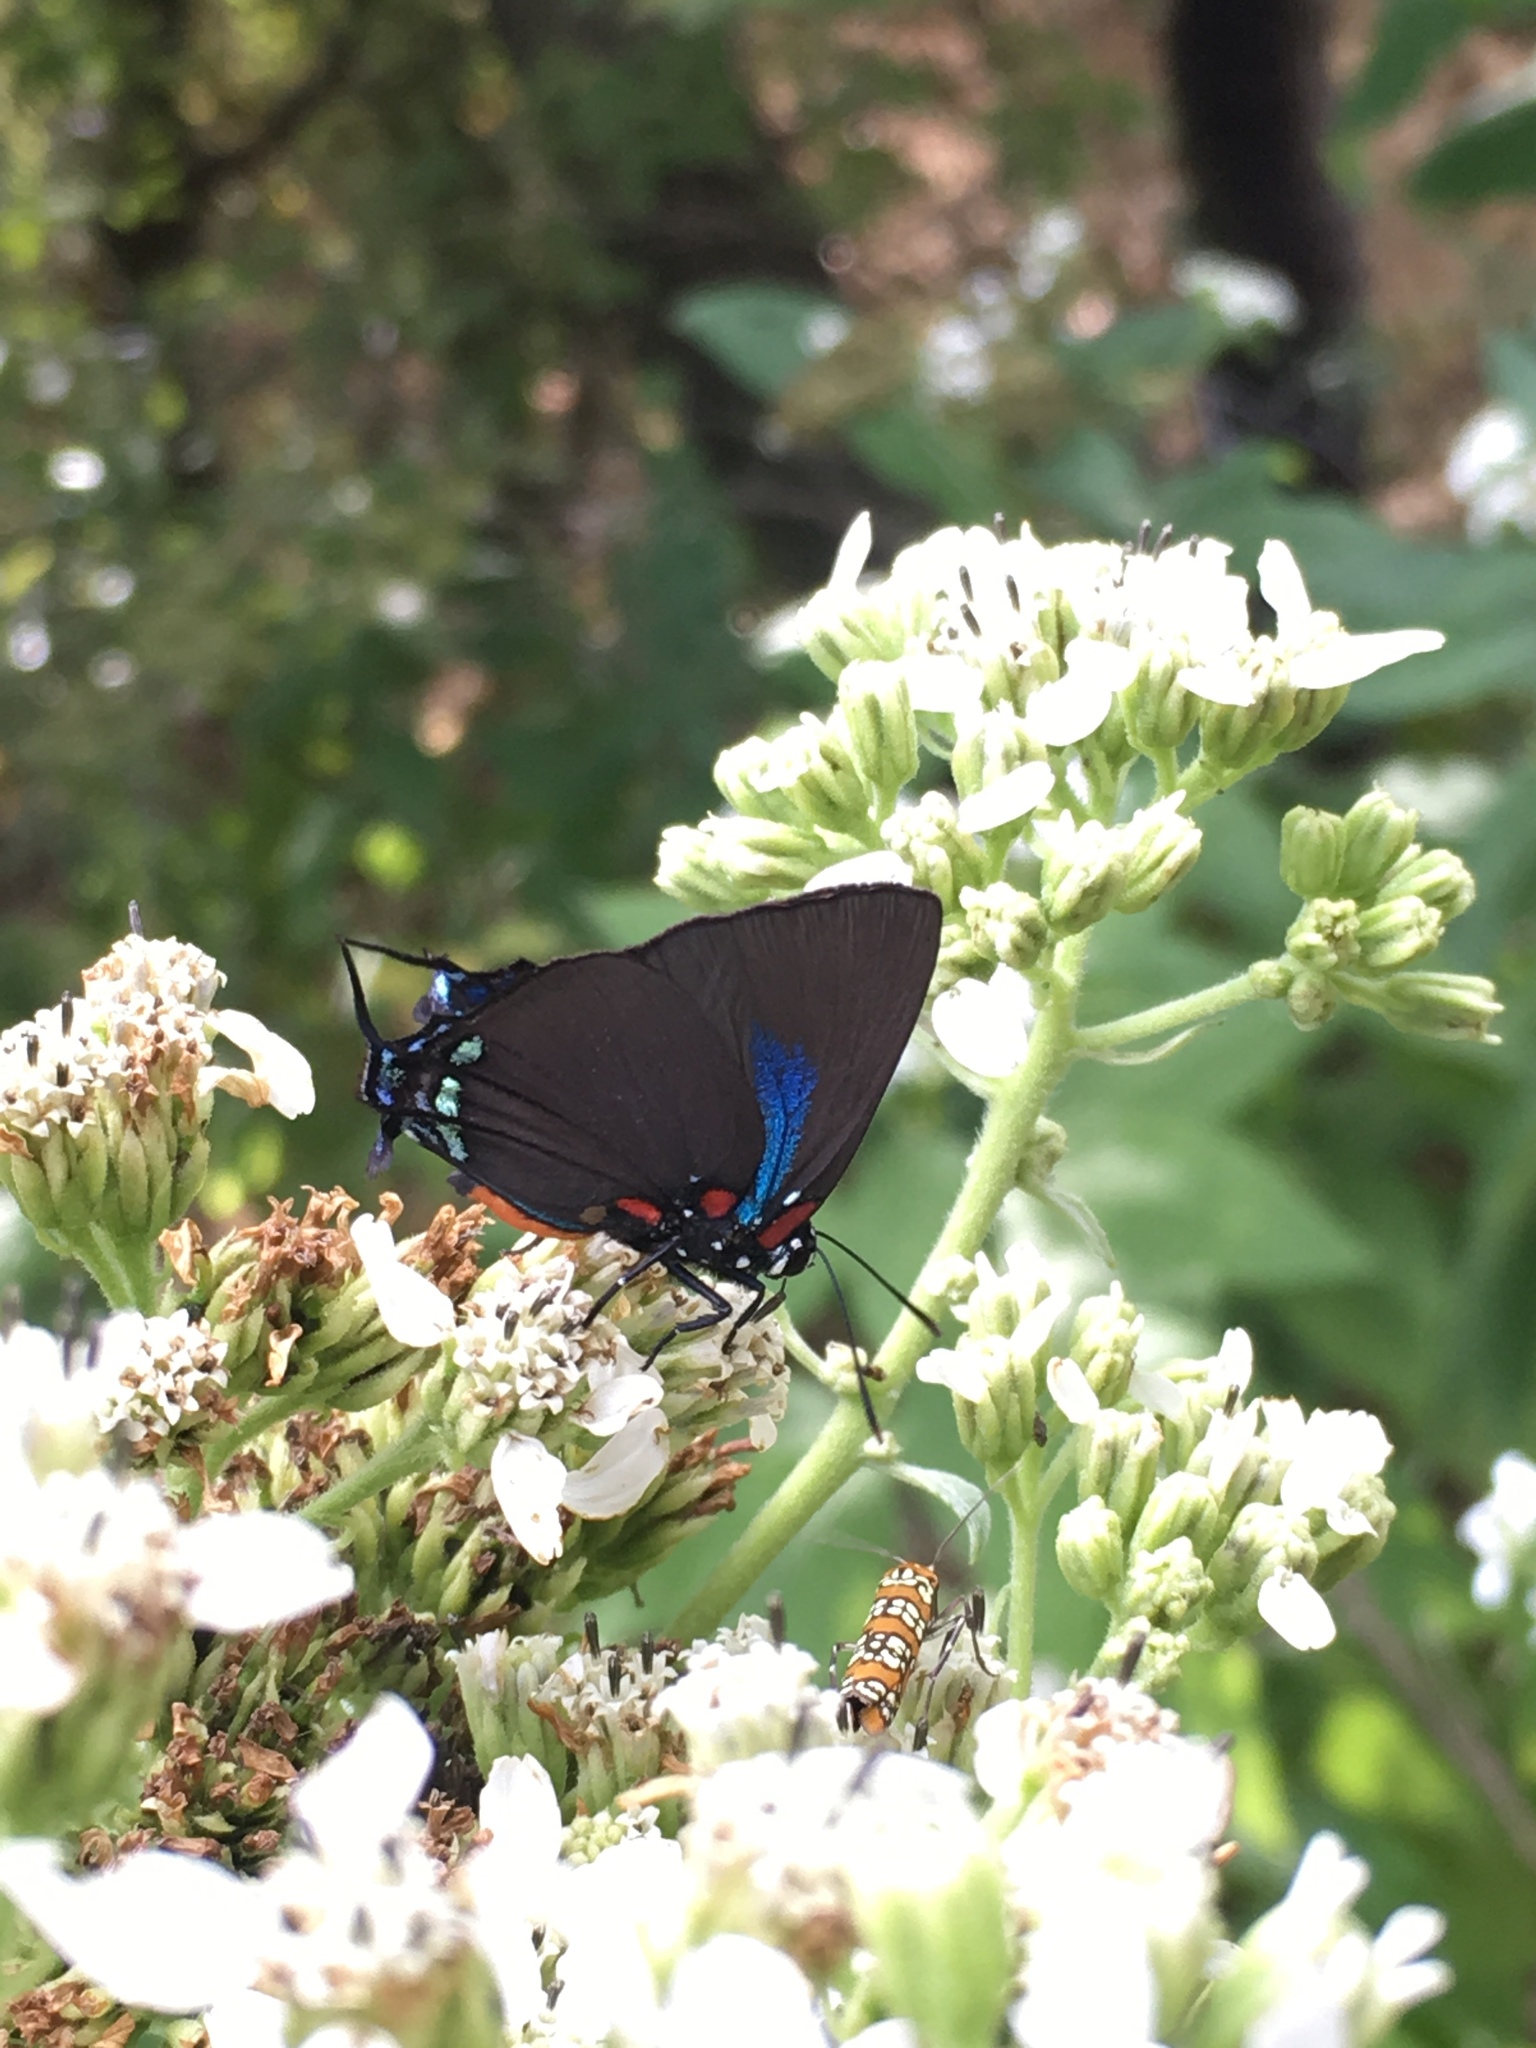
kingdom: Animalia
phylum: Arthropoda
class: Insecta
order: Lepidoptera
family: Lycaenidae
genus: Atlides
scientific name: Atlides halesus
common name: Great purple hairstreak
